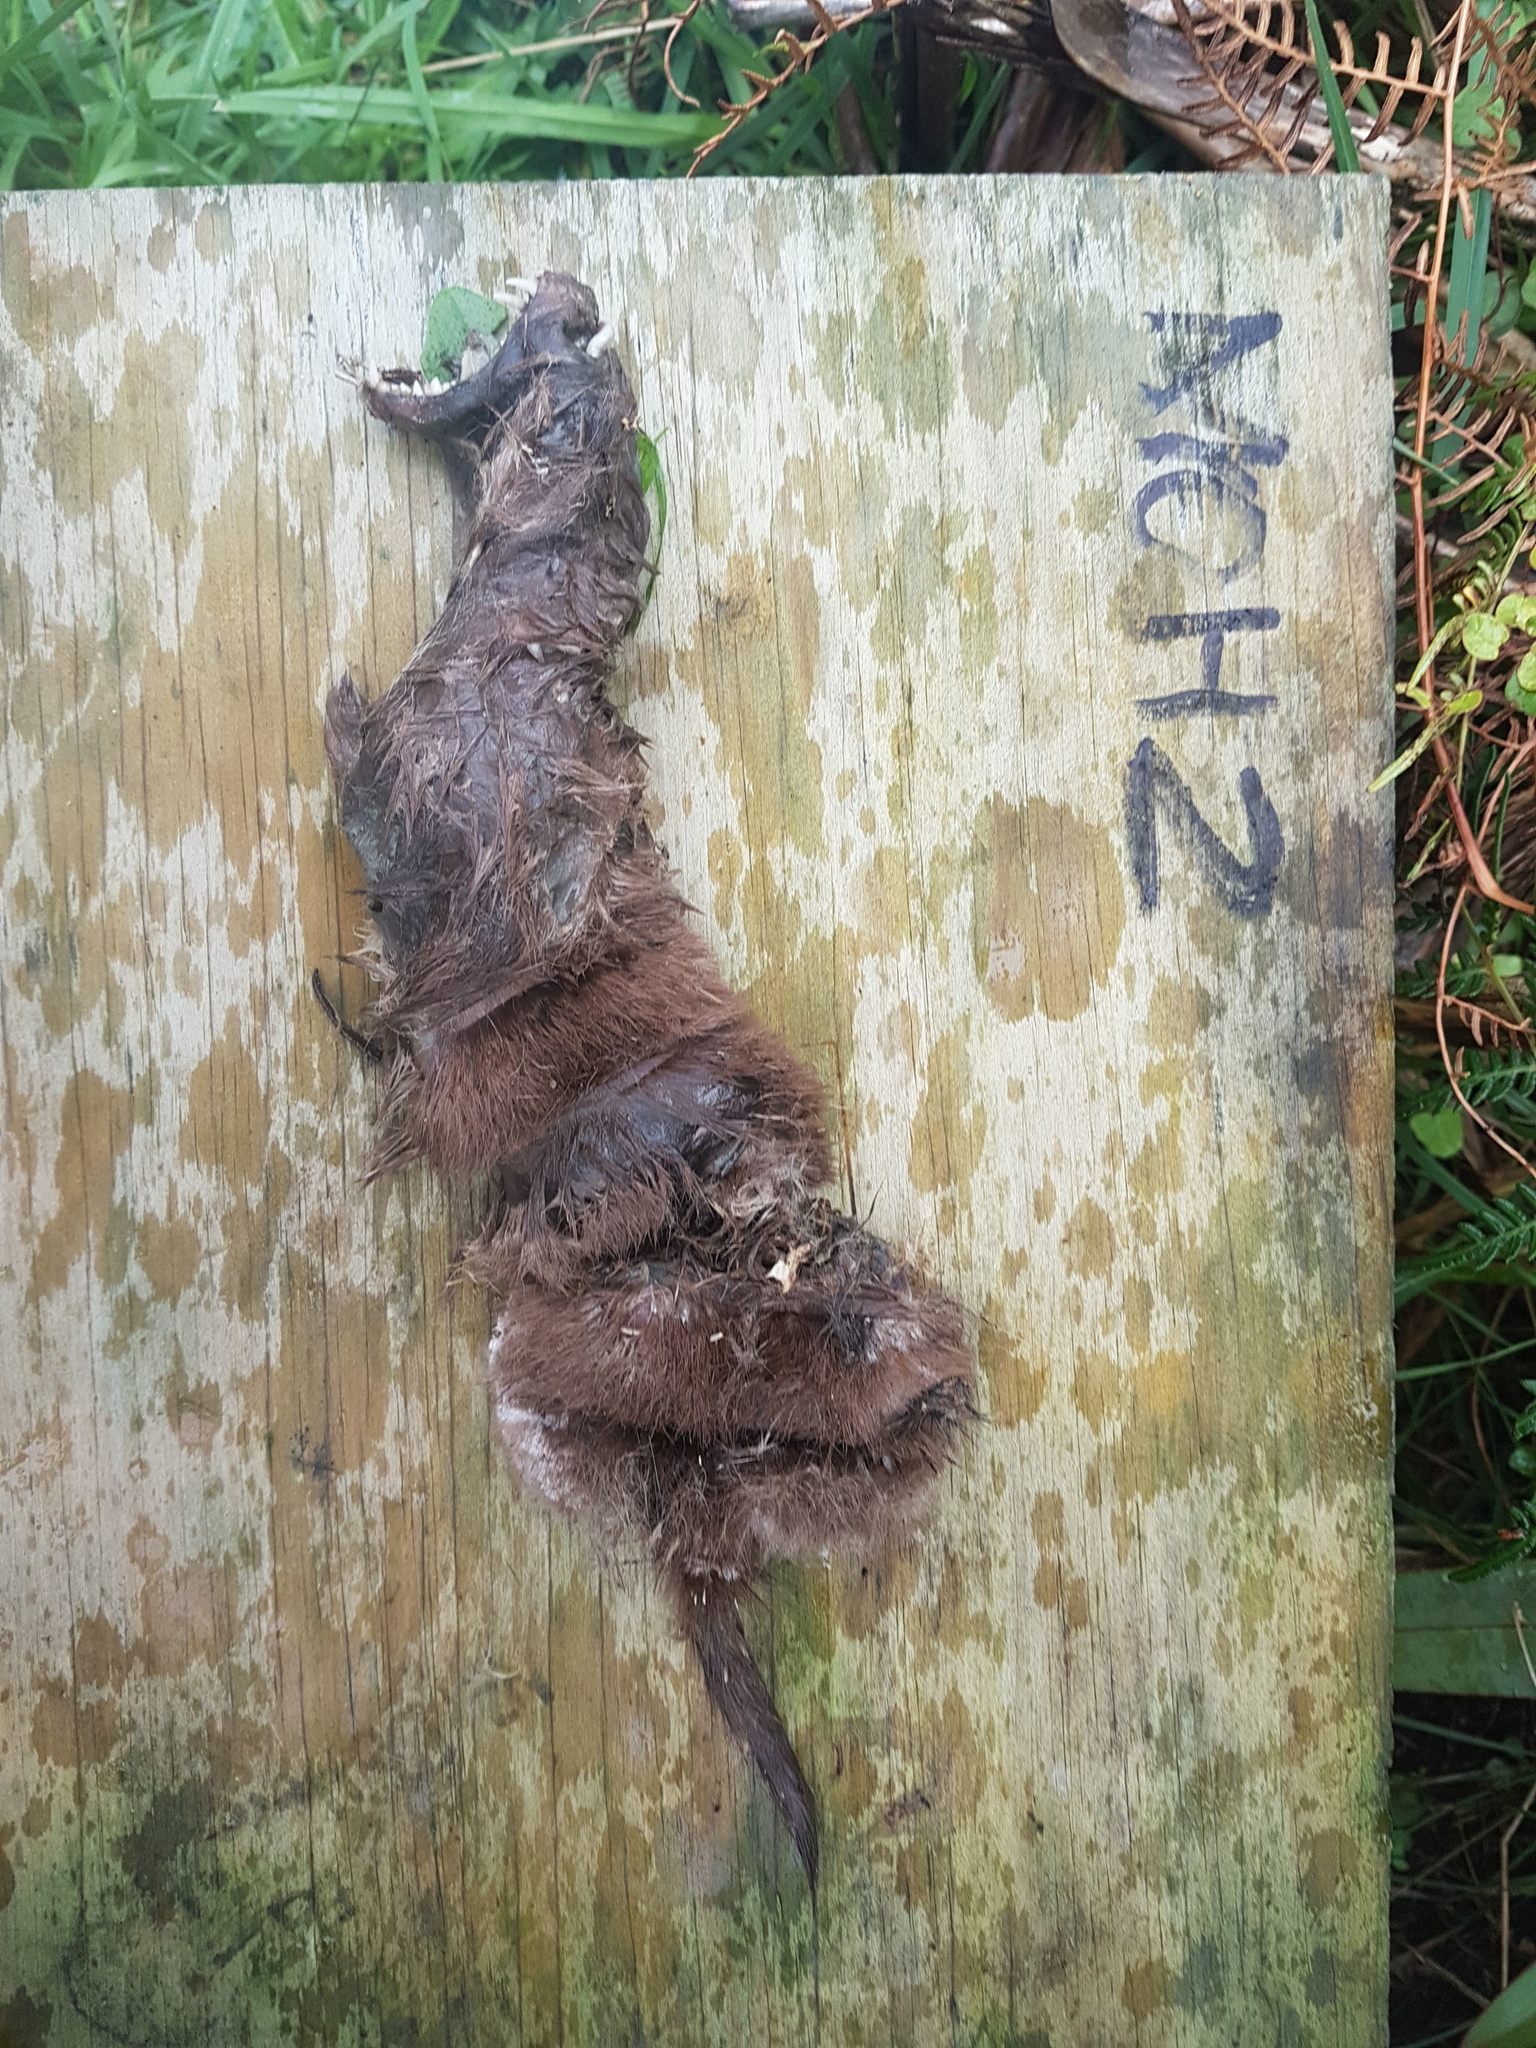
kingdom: Animalia
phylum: Chordata
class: Mammalia
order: Carnivora
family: Mustelidae
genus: Mustela
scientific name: Mustela nivalis
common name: Least weasel
